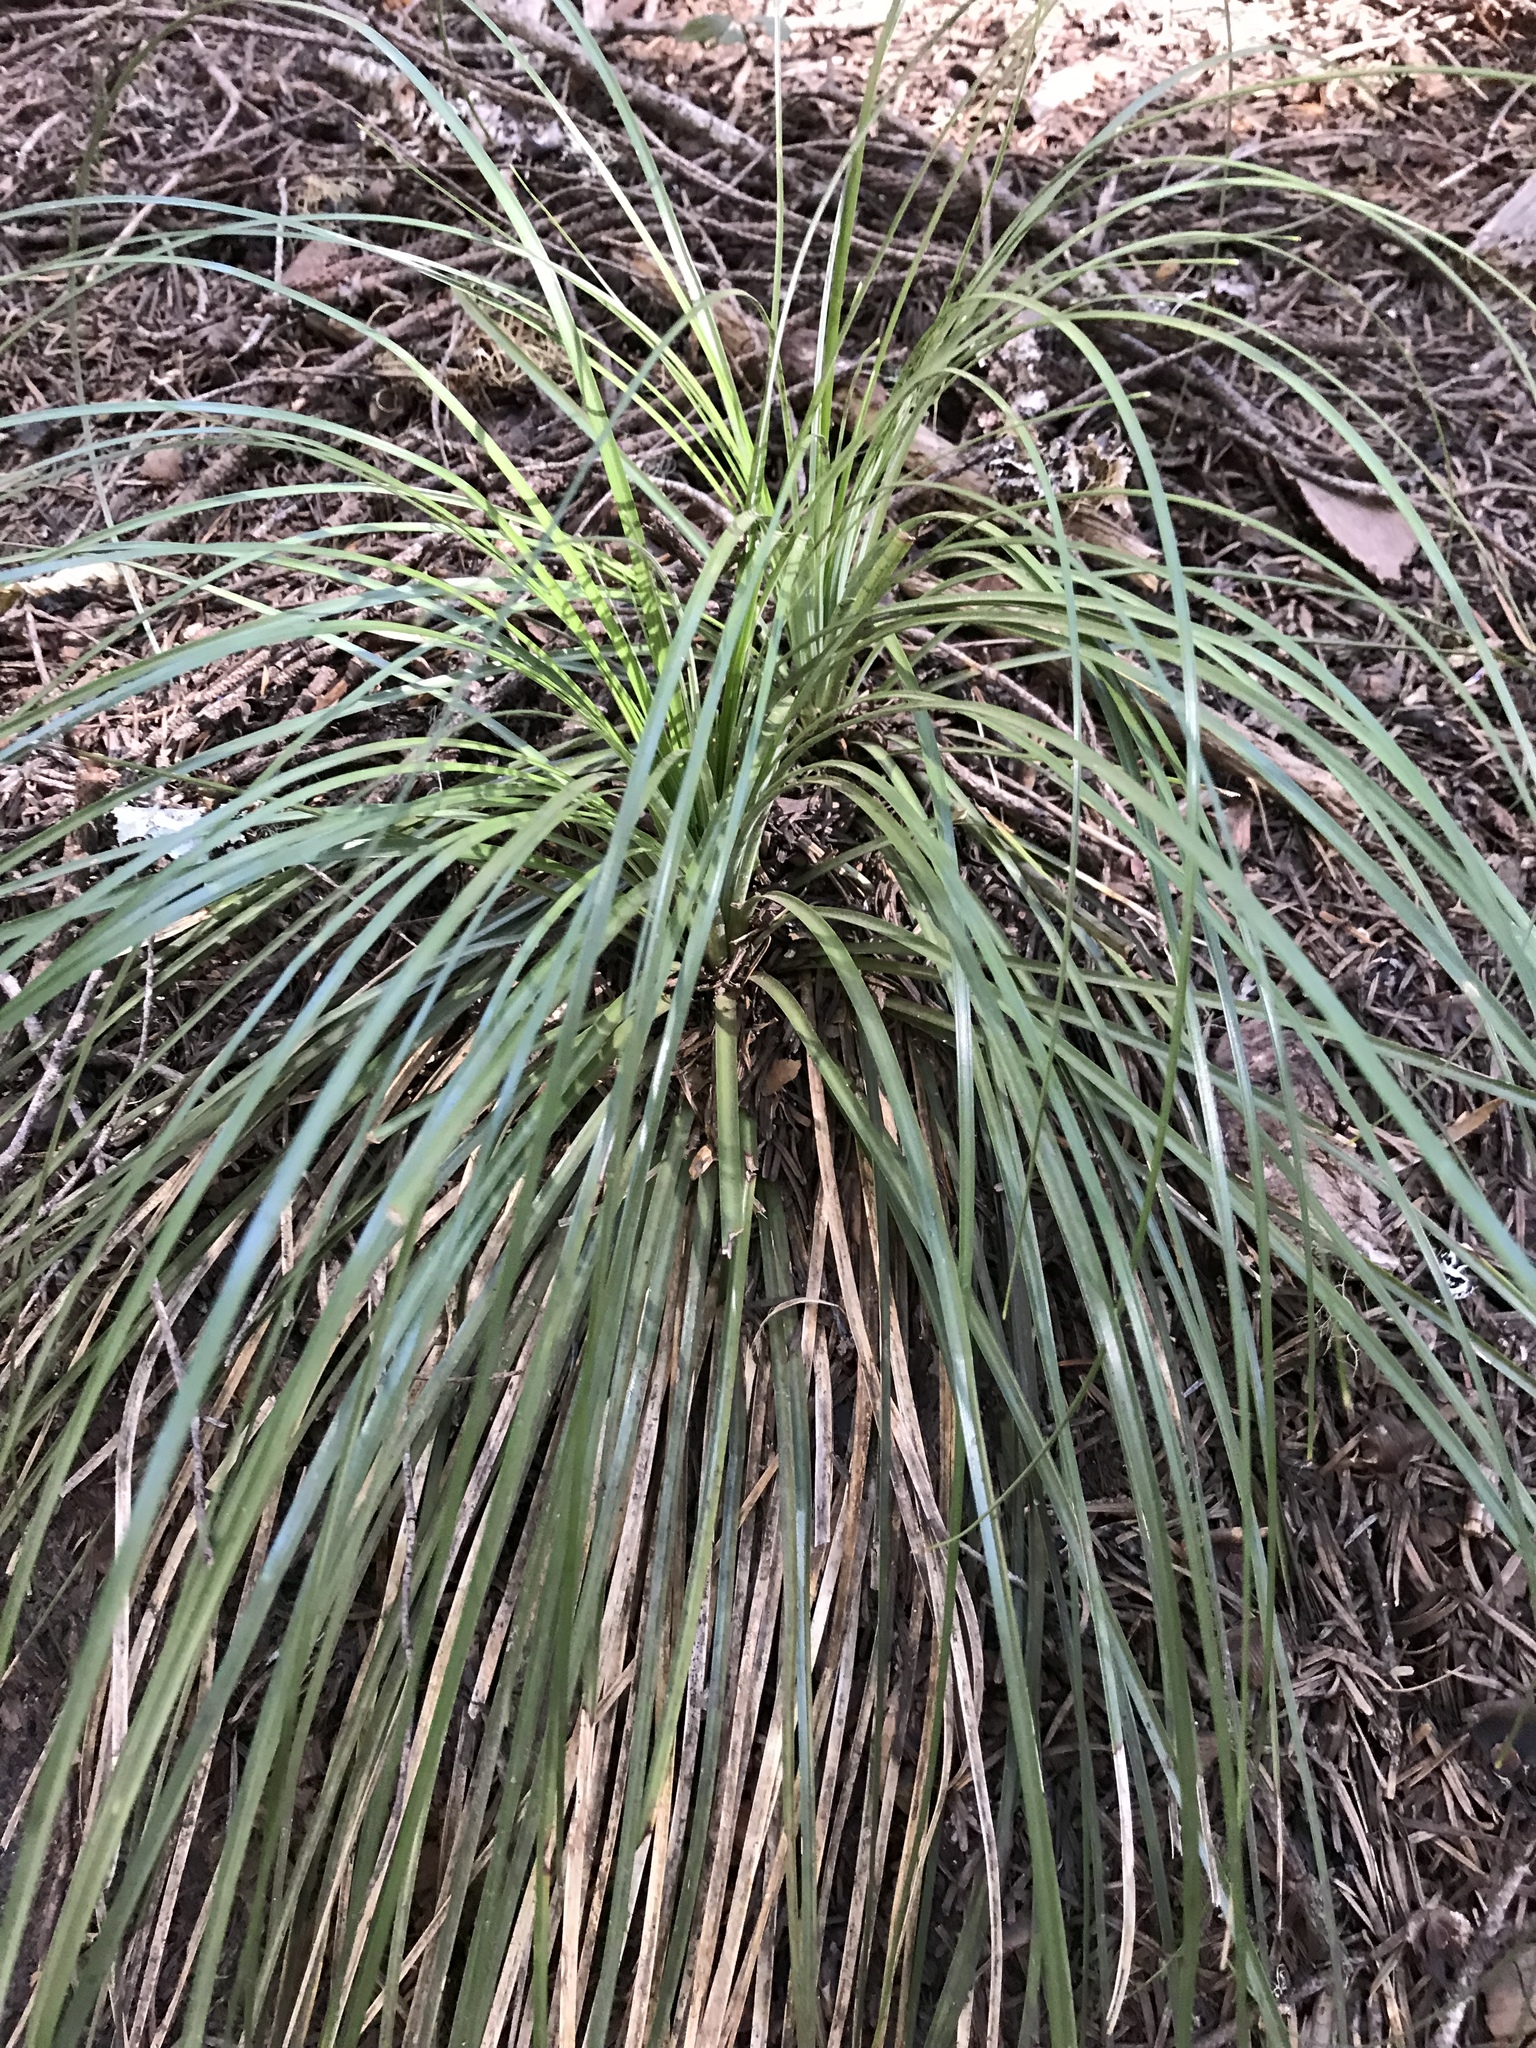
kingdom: Plantae
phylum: Tracheophyta
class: Liliopsida
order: Liliales
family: Melanthiaceae
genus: Xerophyllum
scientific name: Xerophyllum tenax
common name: Bear-grass
